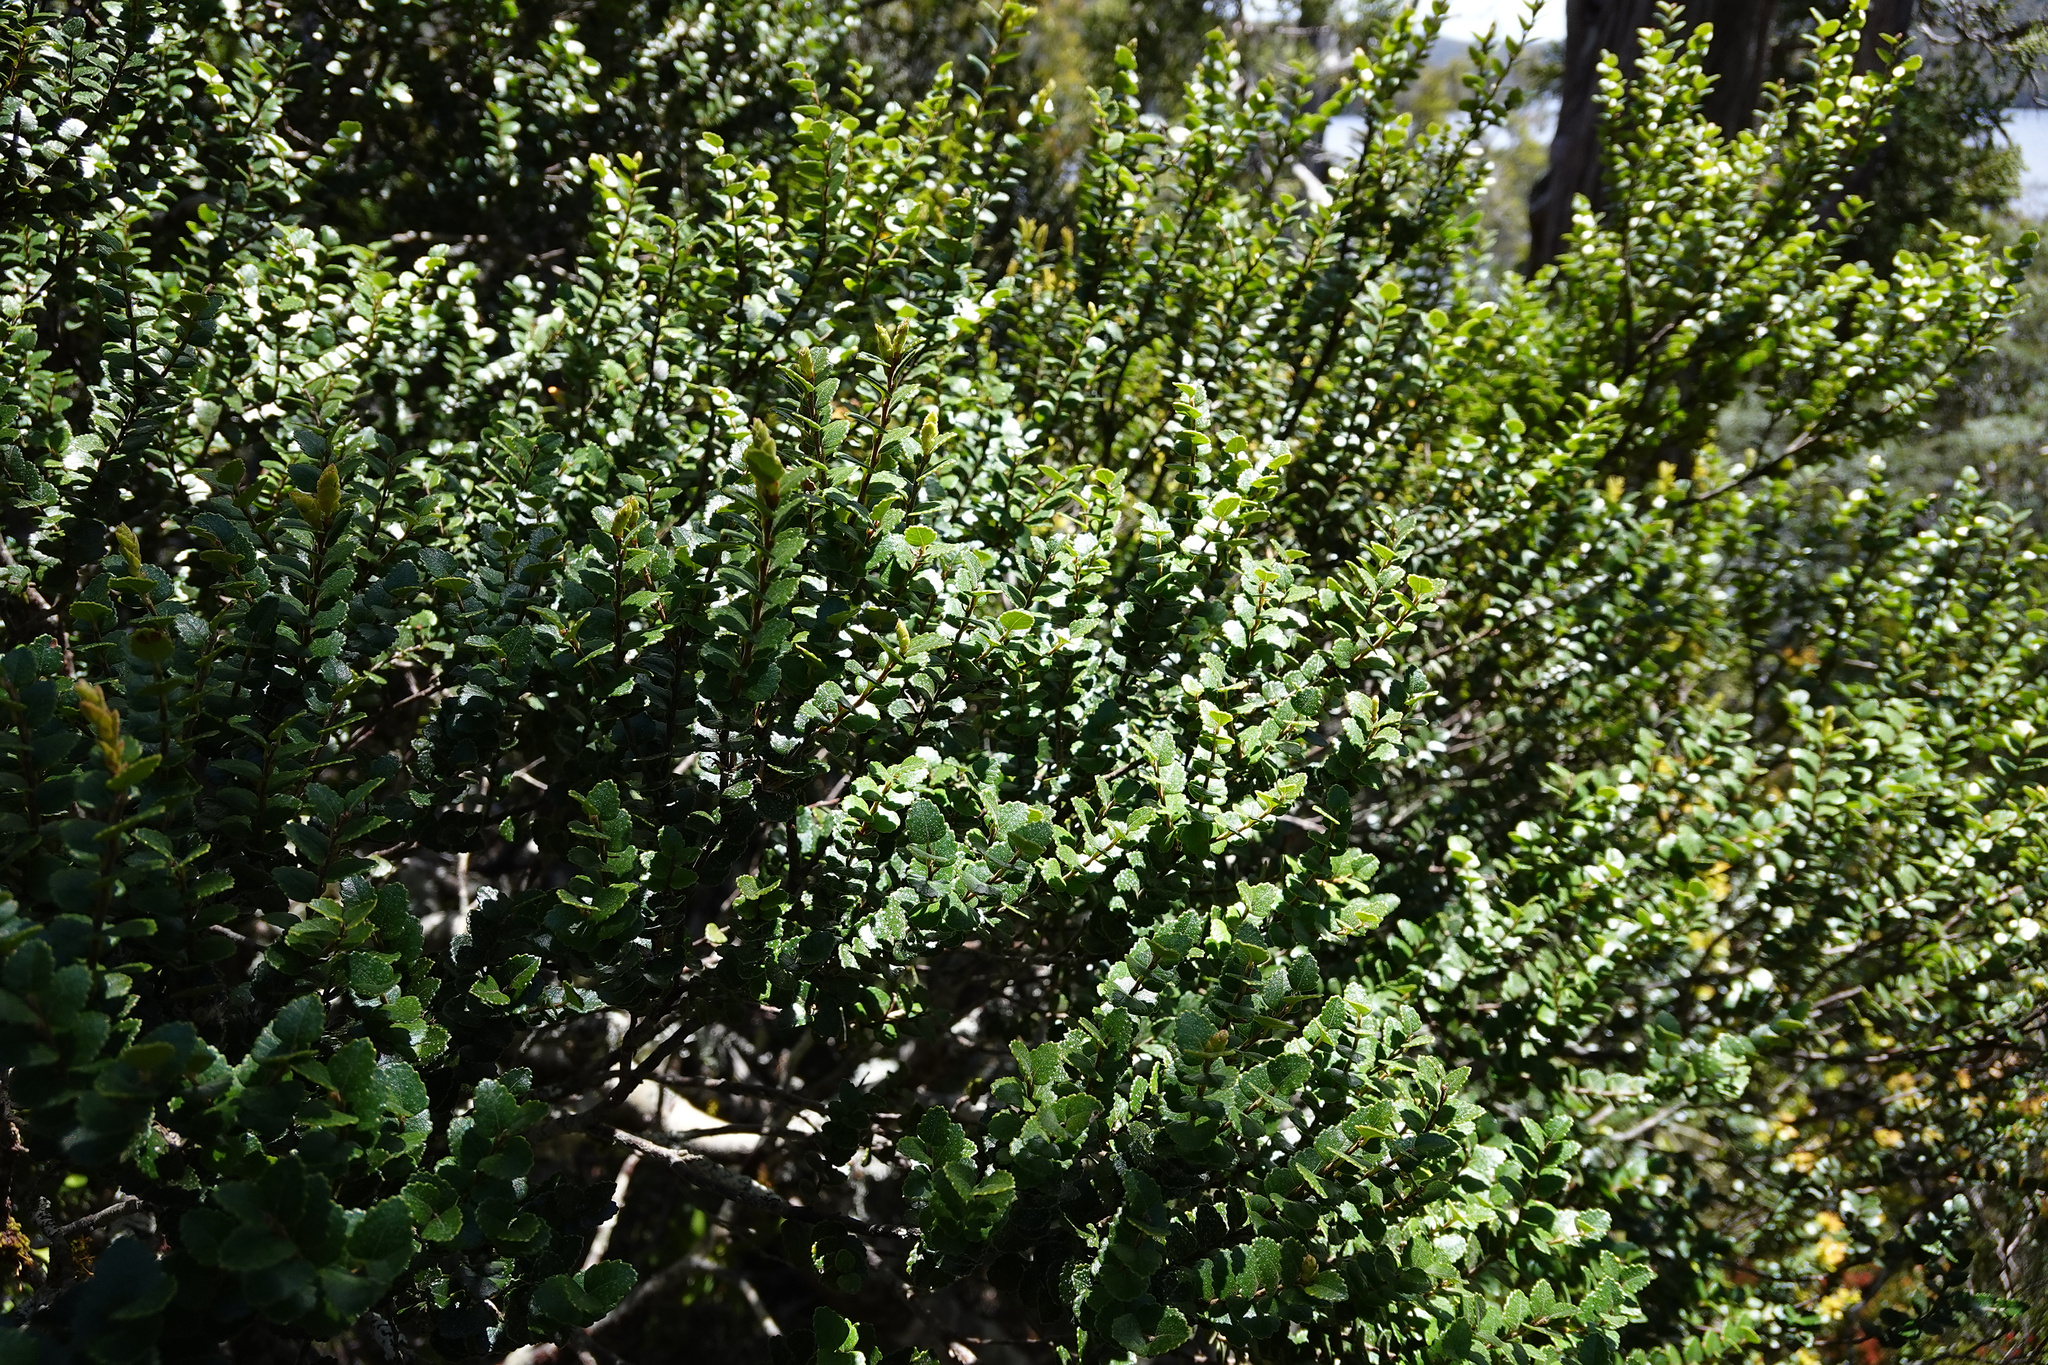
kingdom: Plantae
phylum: Tracheophyta
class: Magnoliopsida
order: Fagales
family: Nothofagaceae
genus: Nothofagus
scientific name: Nothofagus cunninghamii
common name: Myrtle beech
